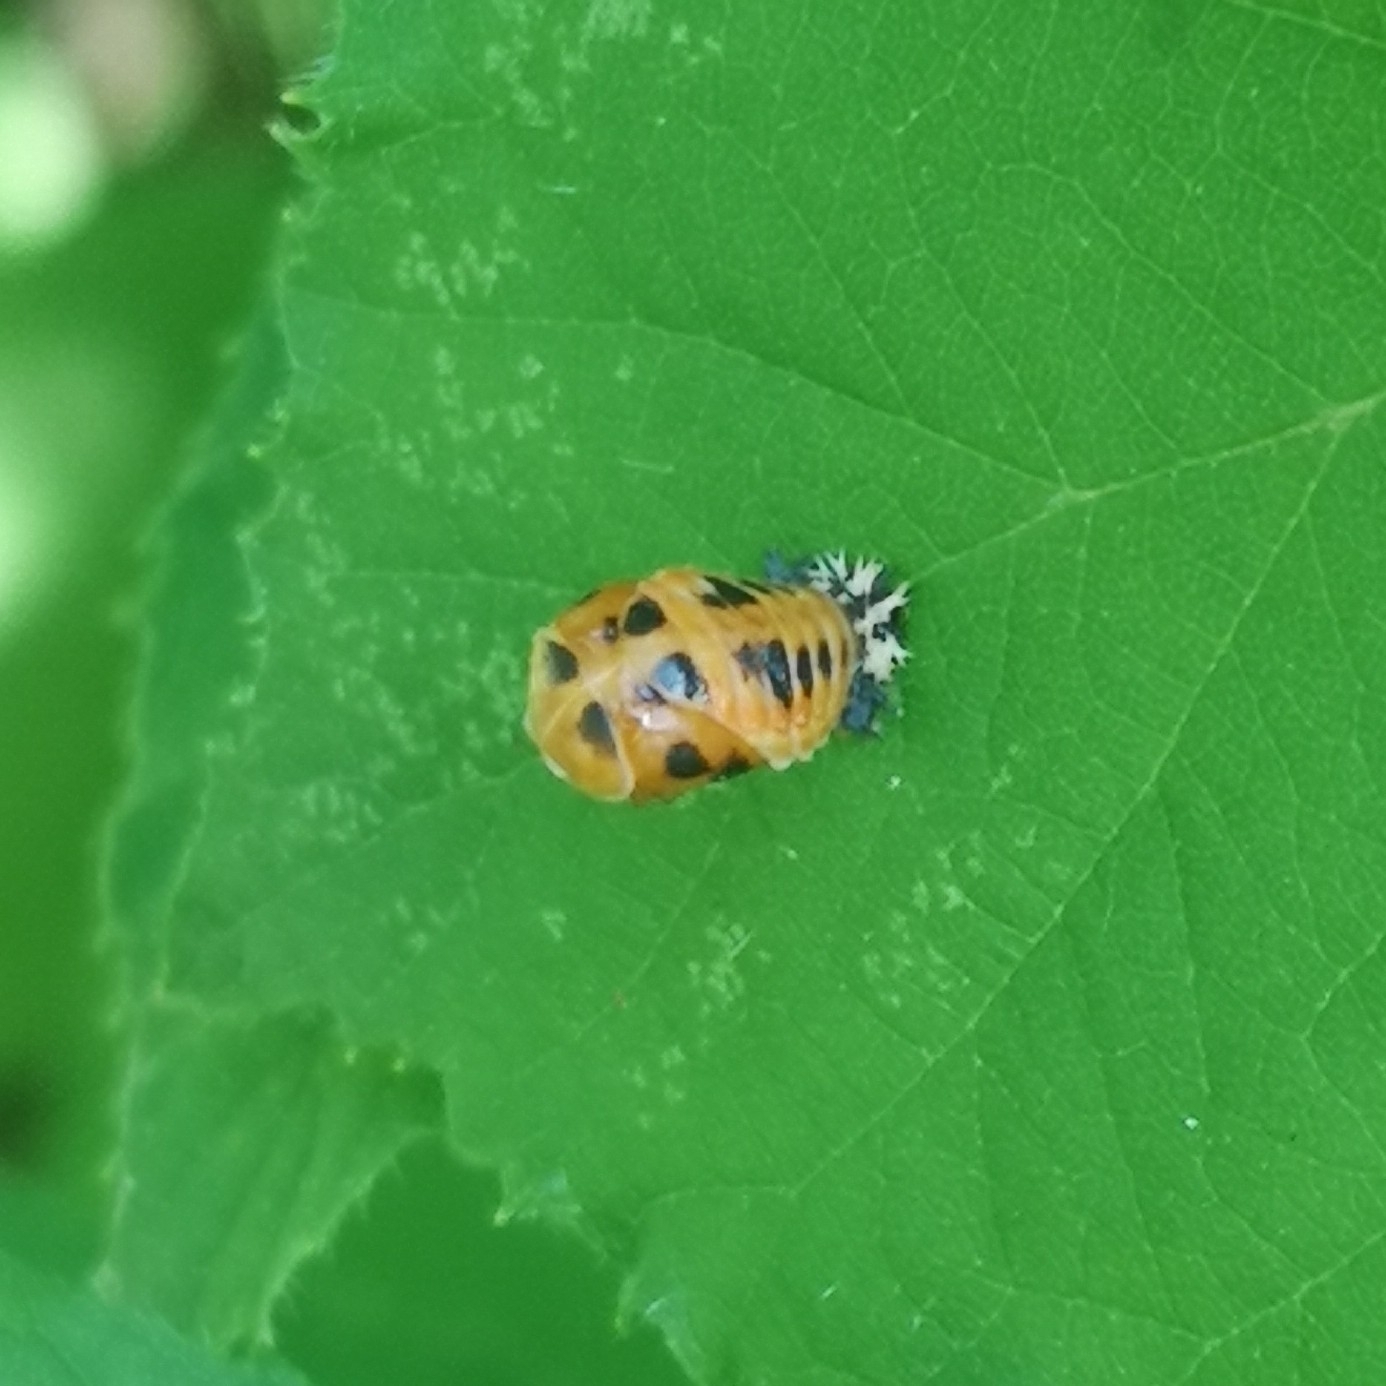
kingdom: Animalia
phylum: Arthropoda
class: Insecta
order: Coleoptera
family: Coccinellidae
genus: Harmonia
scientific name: Harmonia axyridis
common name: Harlequin ladybird
